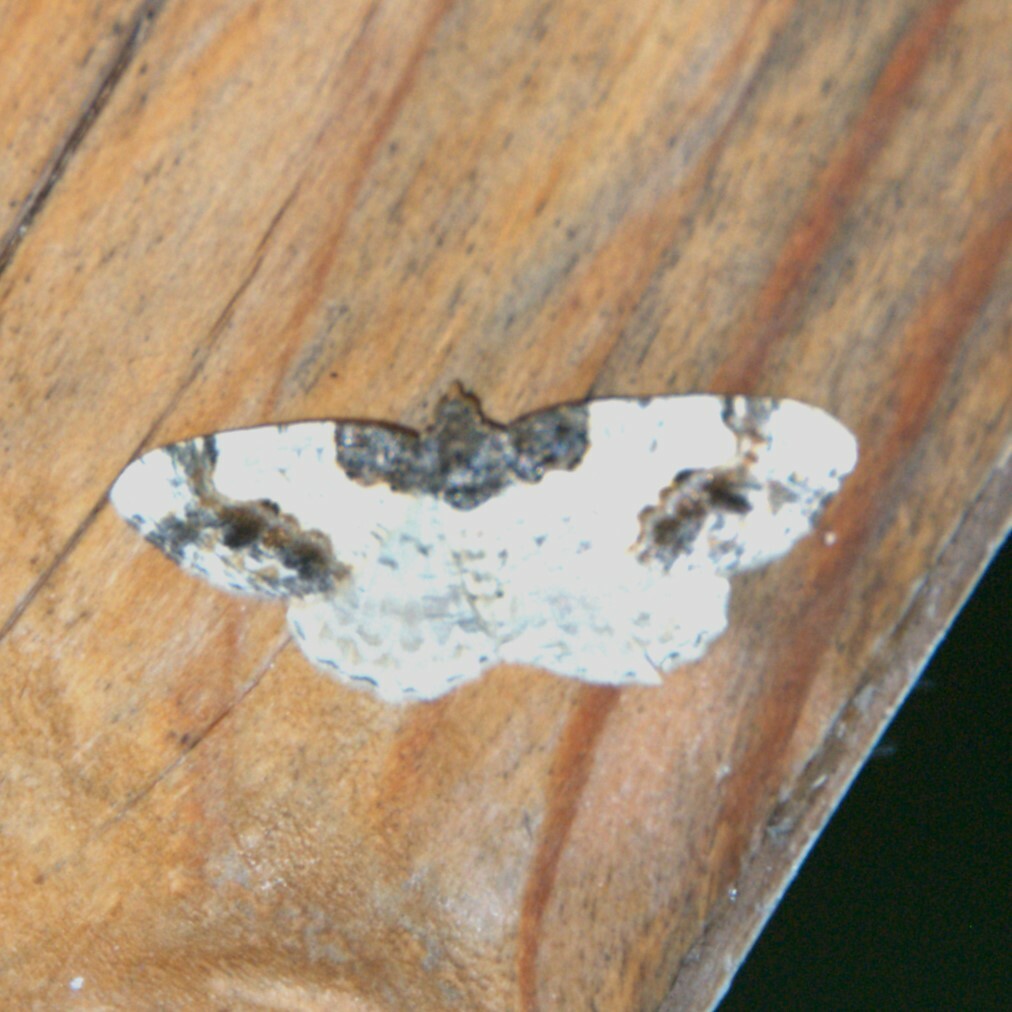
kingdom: Animalia
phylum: Arthropoda
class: Insecta
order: Lepidoptera
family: Geometridae
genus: Ligdia
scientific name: Ligdia adustata
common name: Scorched carpet
